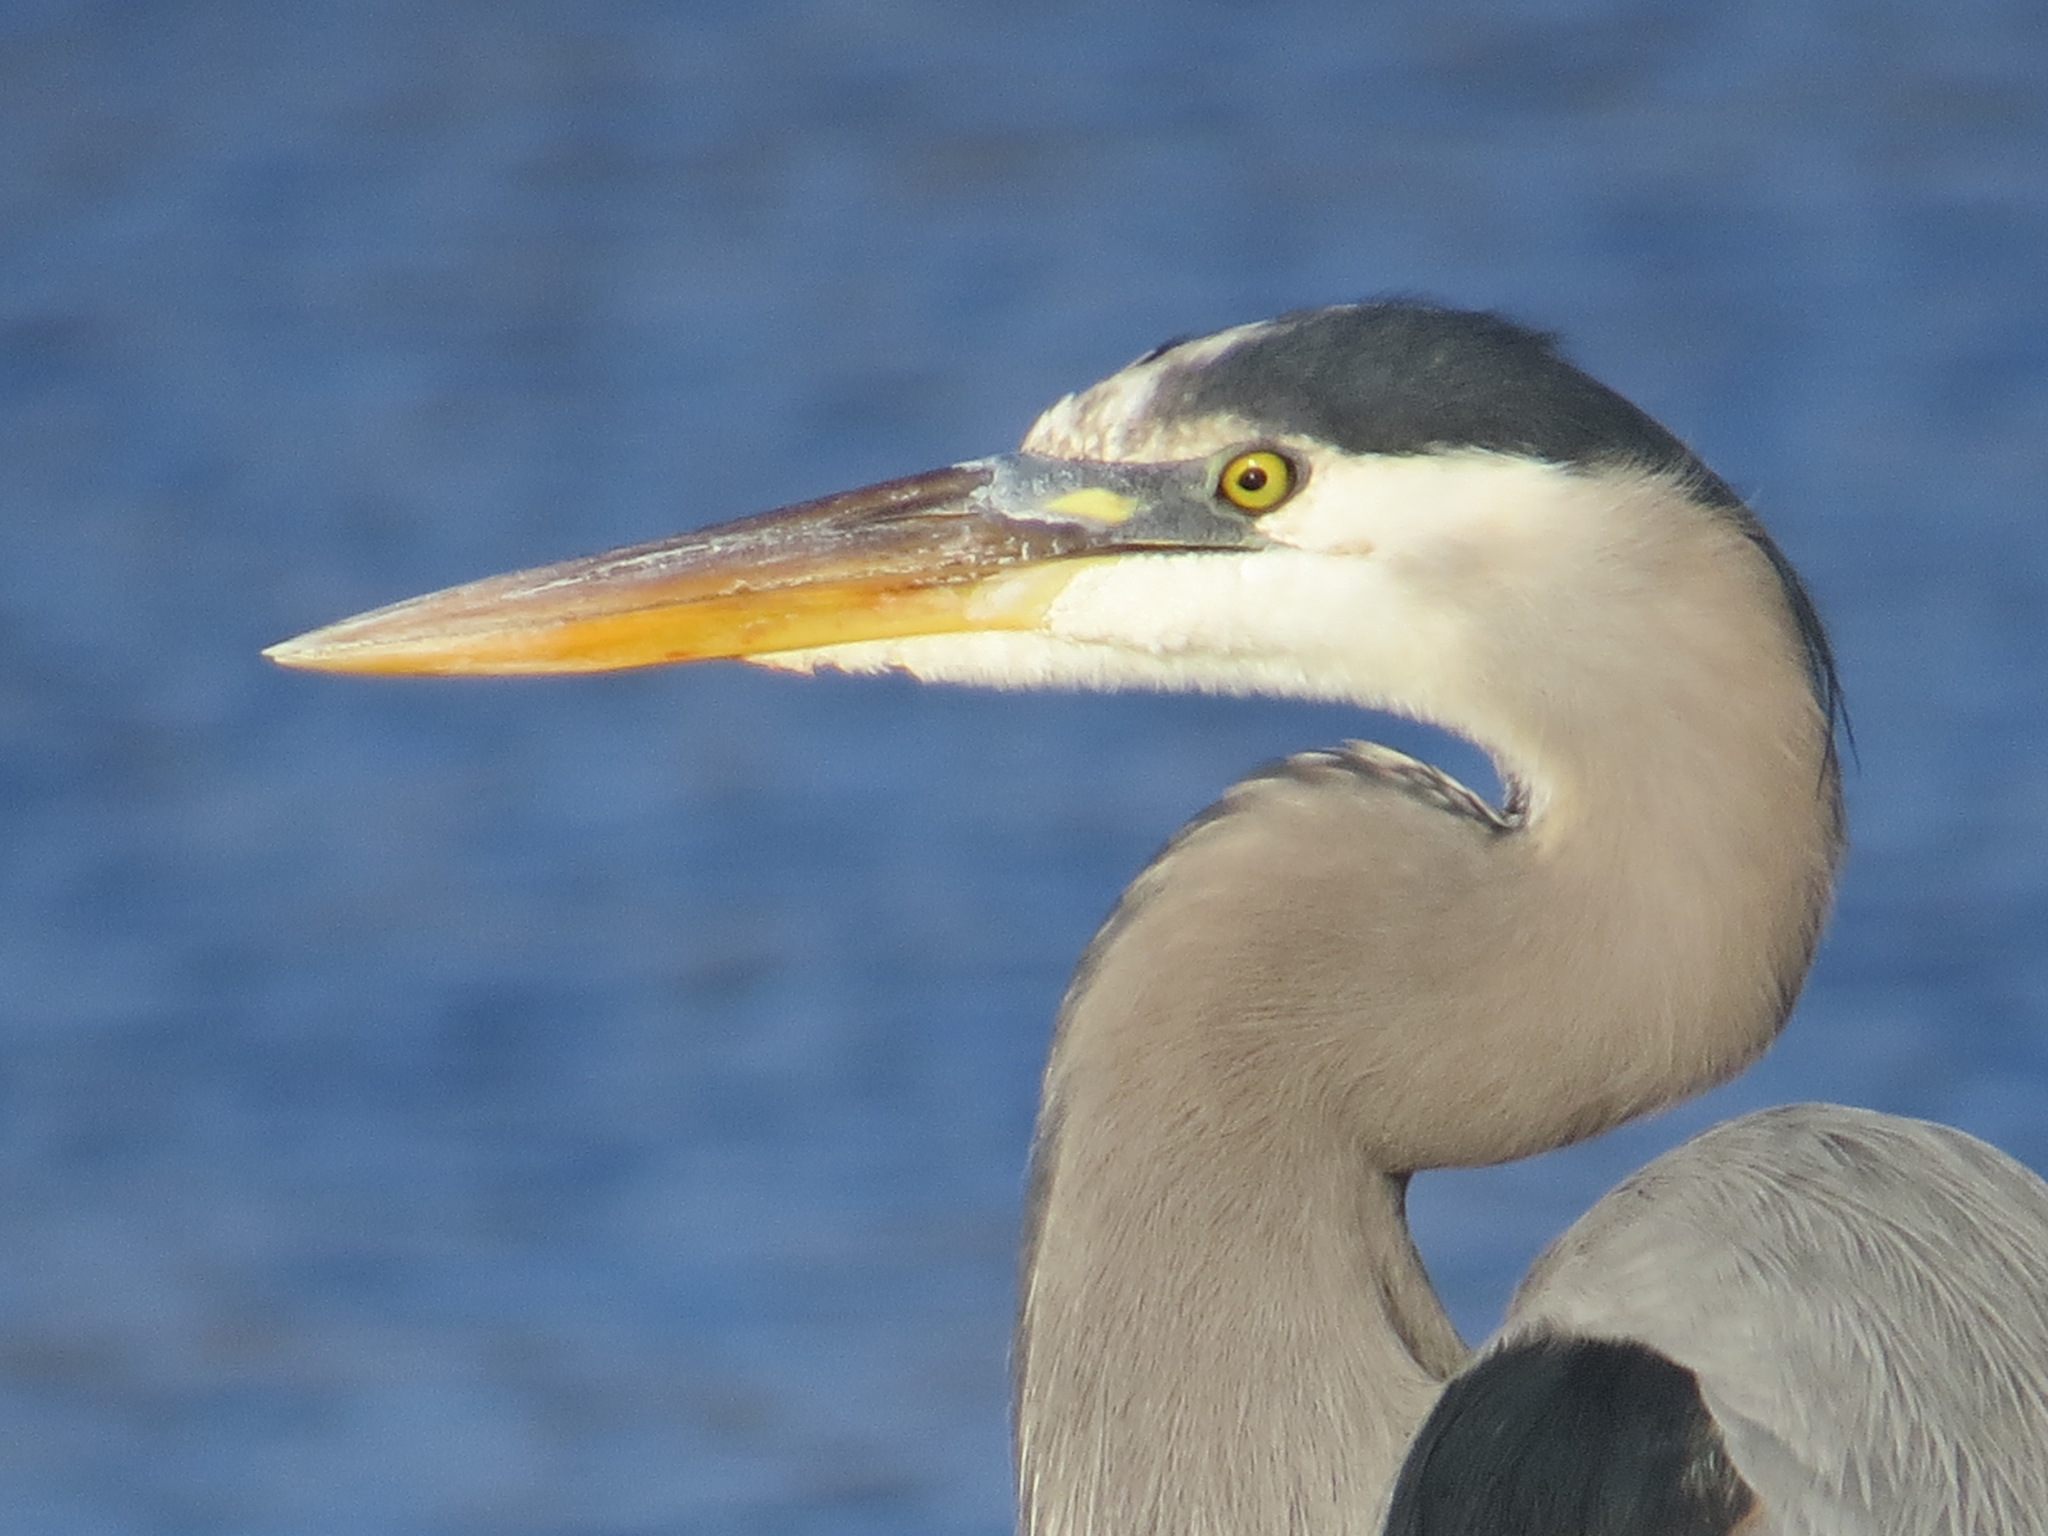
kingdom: Animalia
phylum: Chordata
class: Aves
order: Pelecaniformes
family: Ardeidae
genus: Ardea
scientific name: Ardea herodias
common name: Great blue heron
